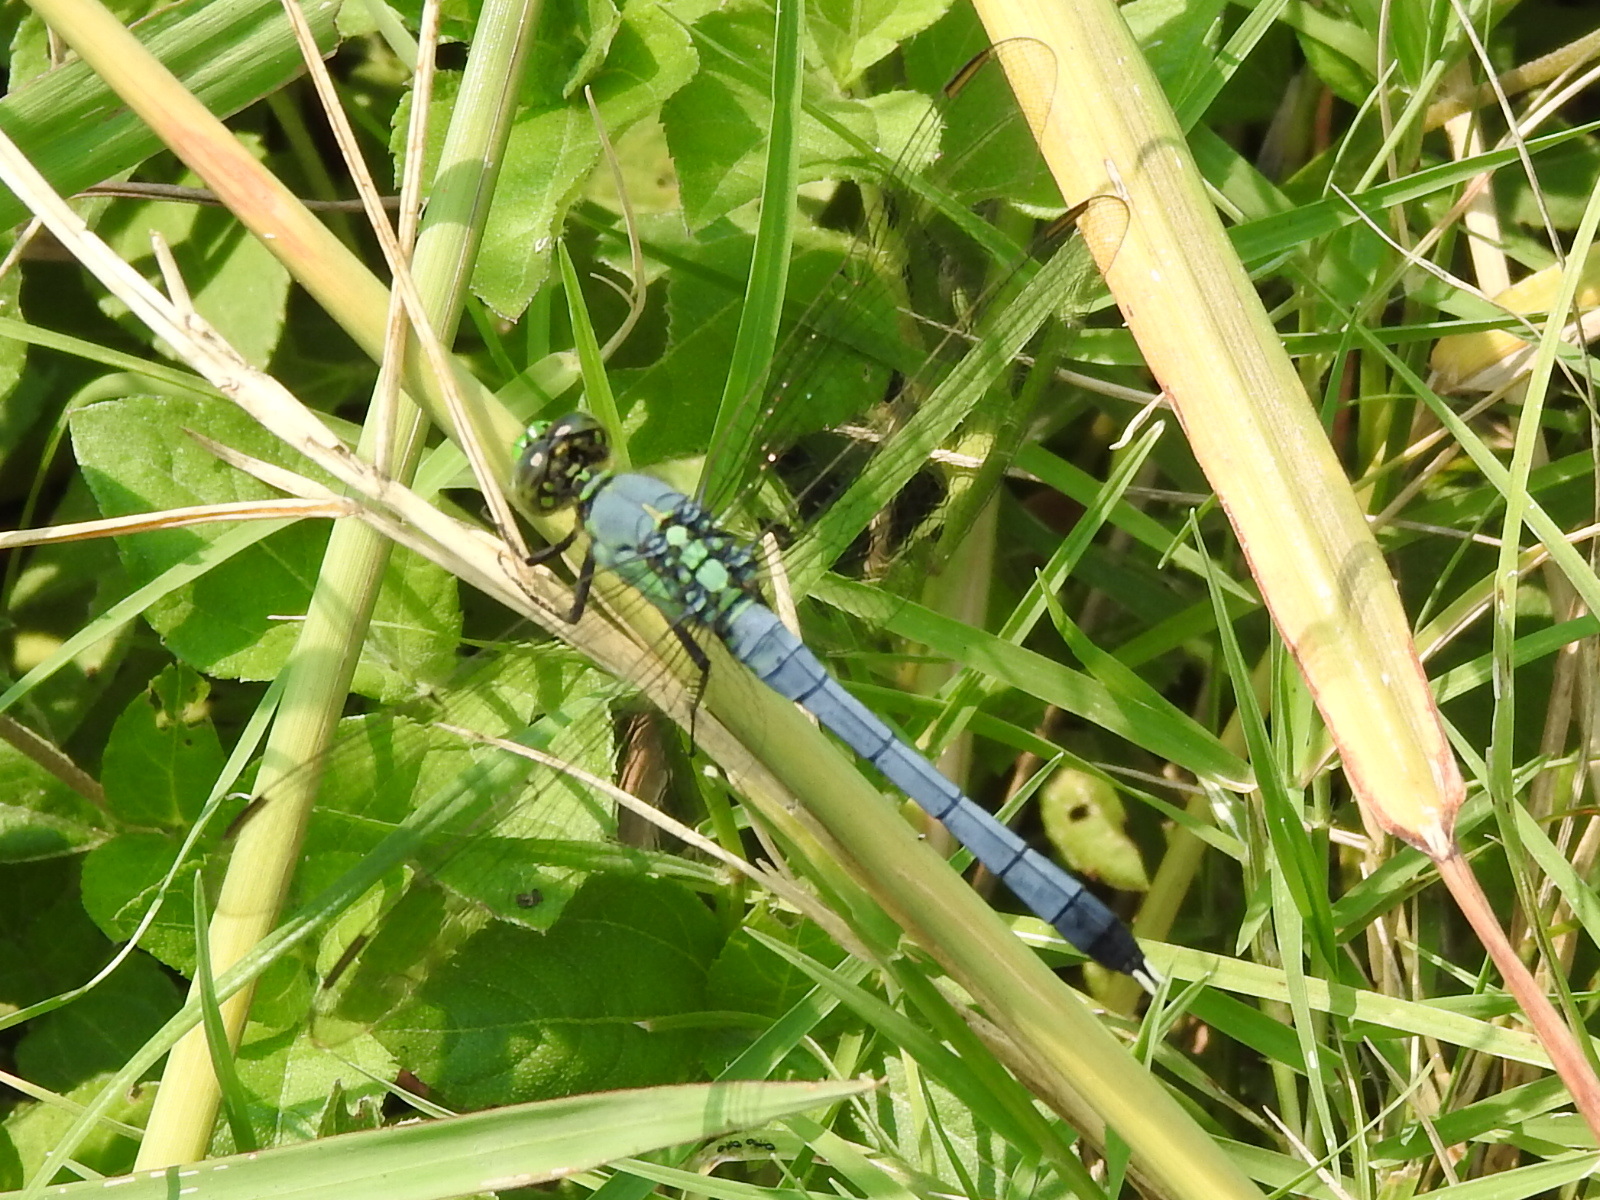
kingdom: Animalia
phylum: Arthropoda
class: Insecta
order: Odonata
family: Libellulidae
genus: Erythemis
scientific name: Erythemis simplicicollis
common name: Eastern pondhawk
